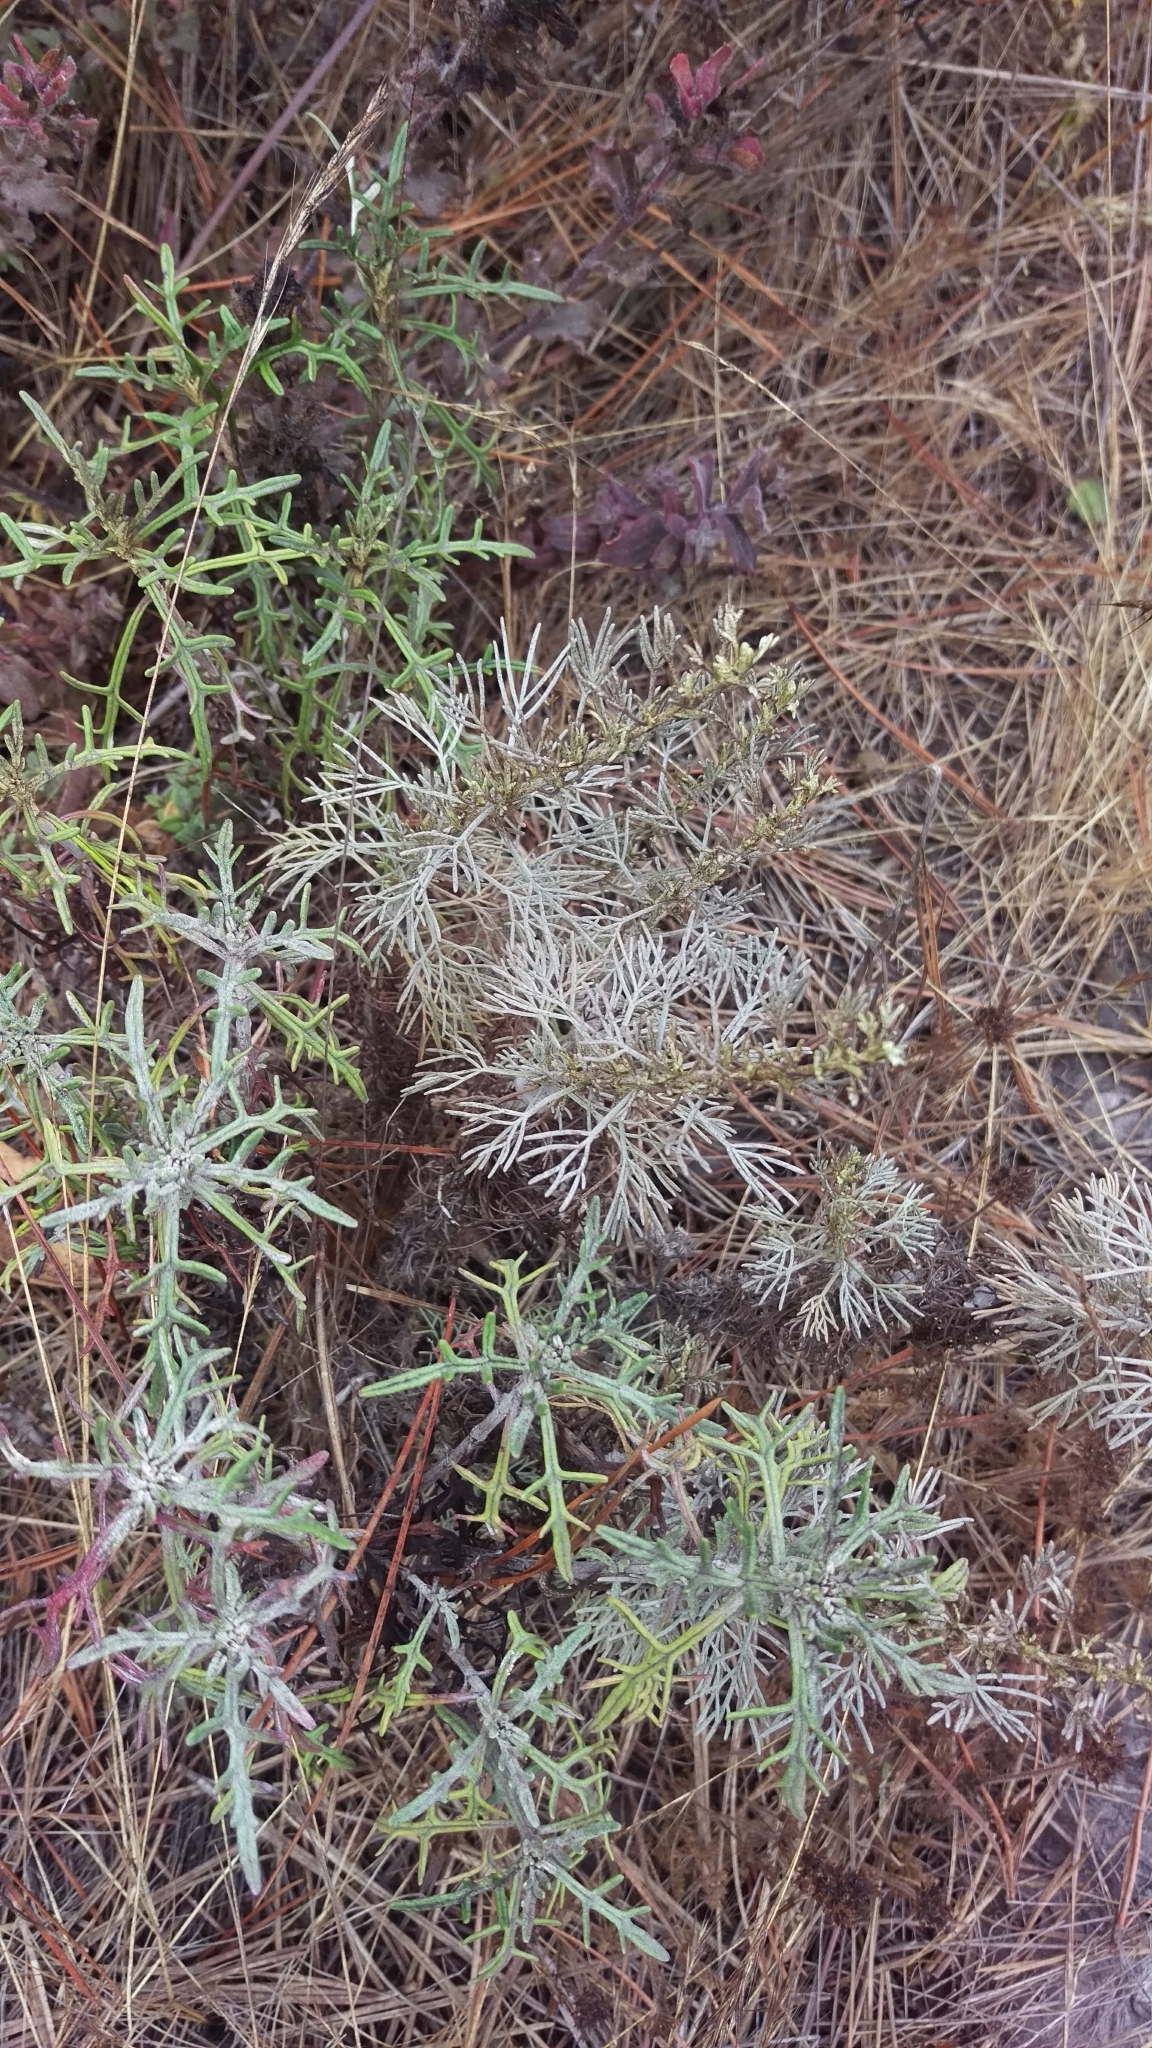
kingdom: Plantae
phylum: Tracheophyta
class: Magnoliopsida
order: Asterales
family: Asteraceae
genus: Artemisia
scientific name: Artemisia californica
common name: California sagebrush
